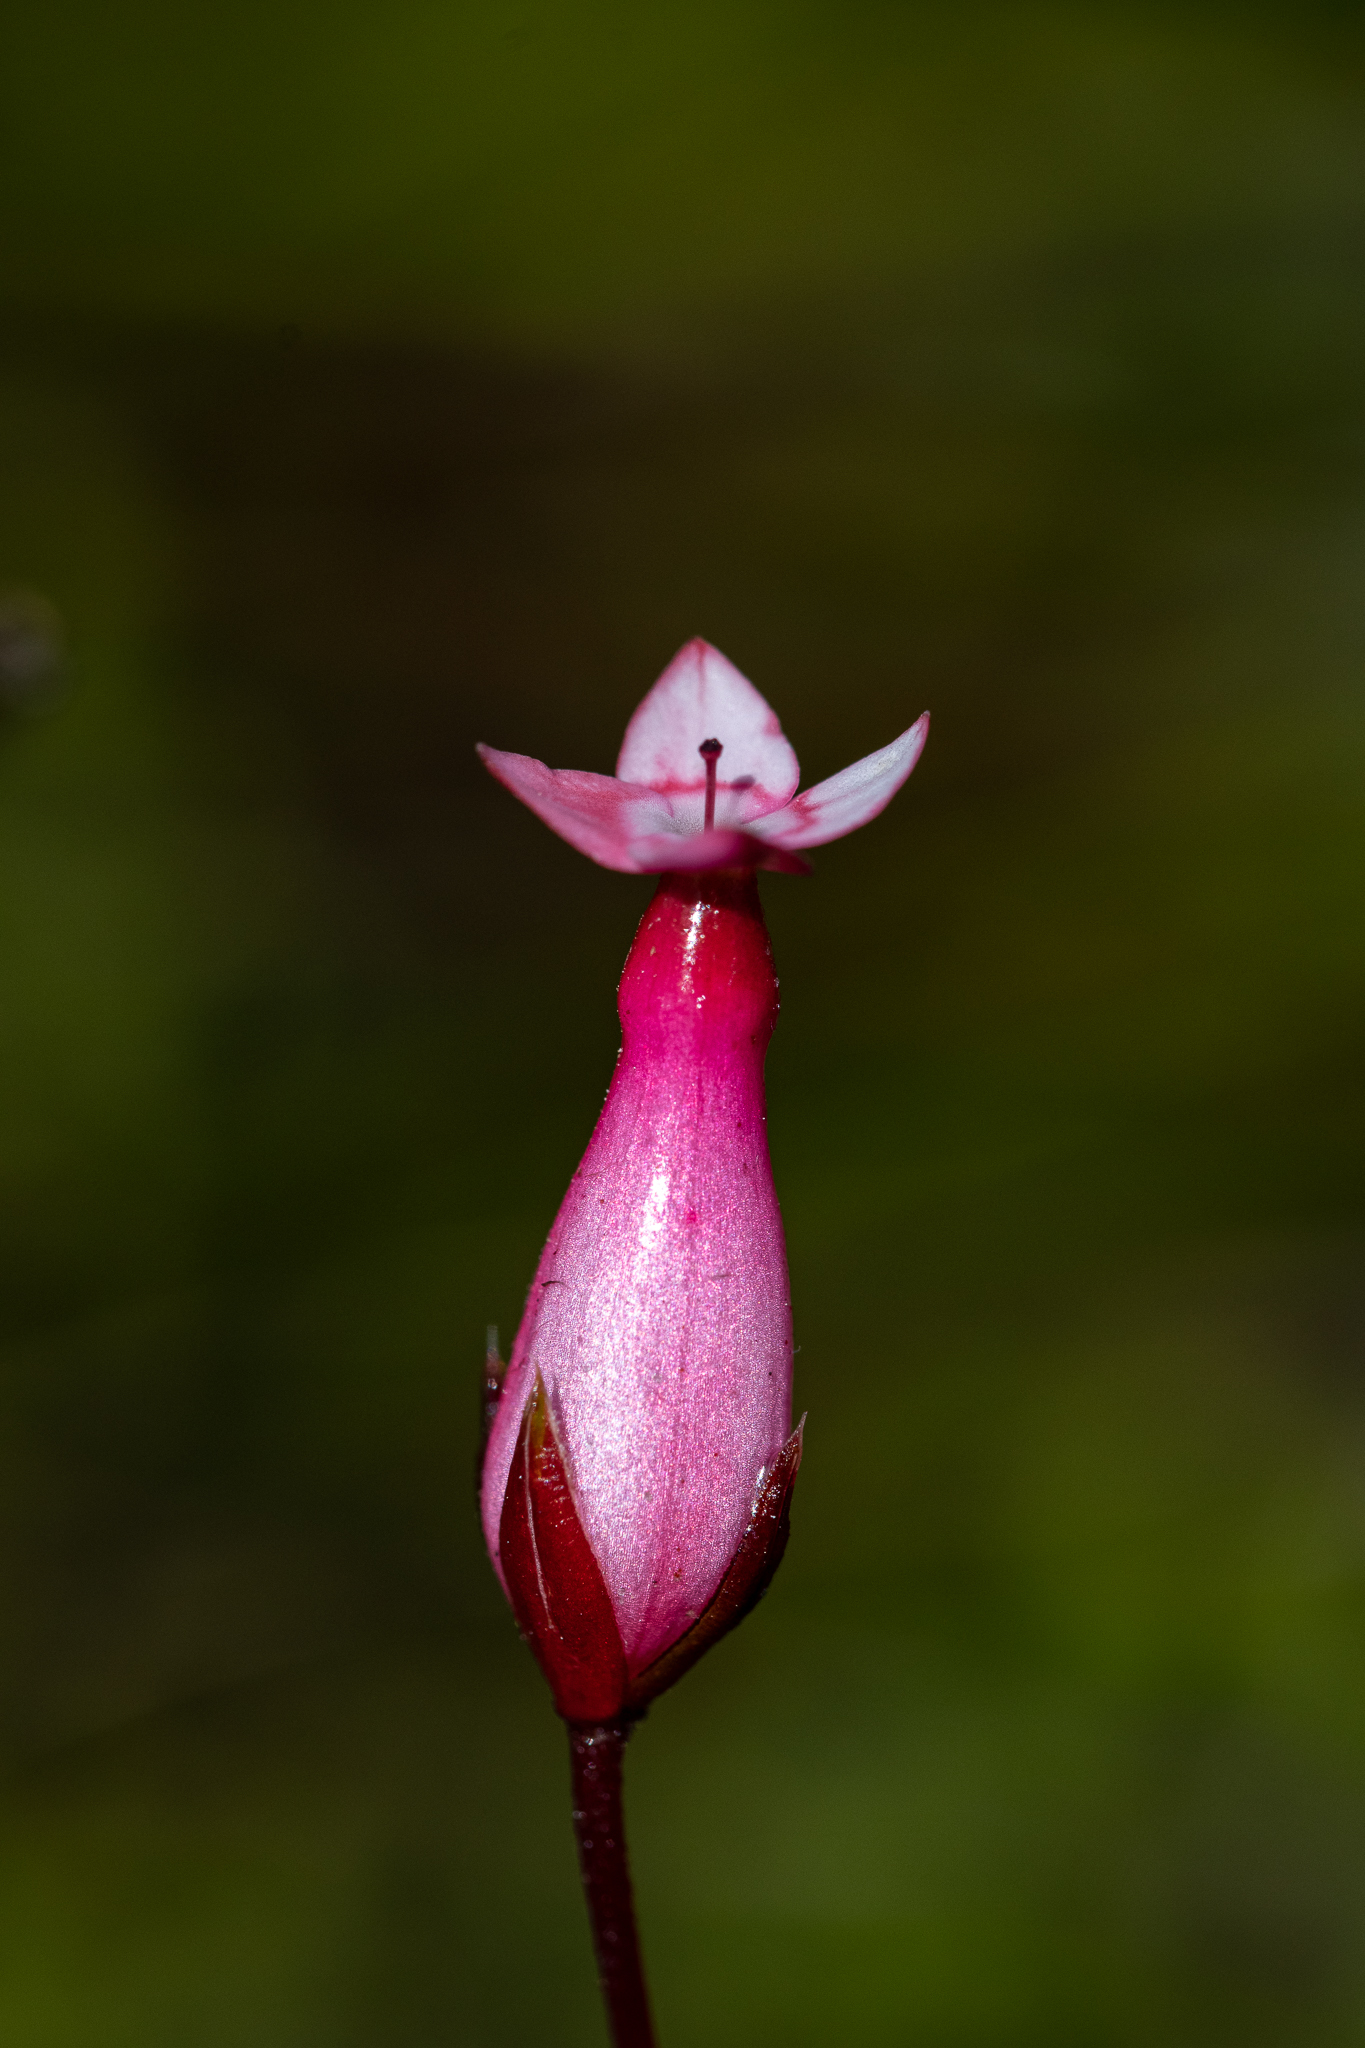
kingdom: Plantae
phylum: Tracheophyta
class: Magnoliopsida
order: Ericales
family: Ericaceae
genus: Erica
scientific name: Erica irbyana
